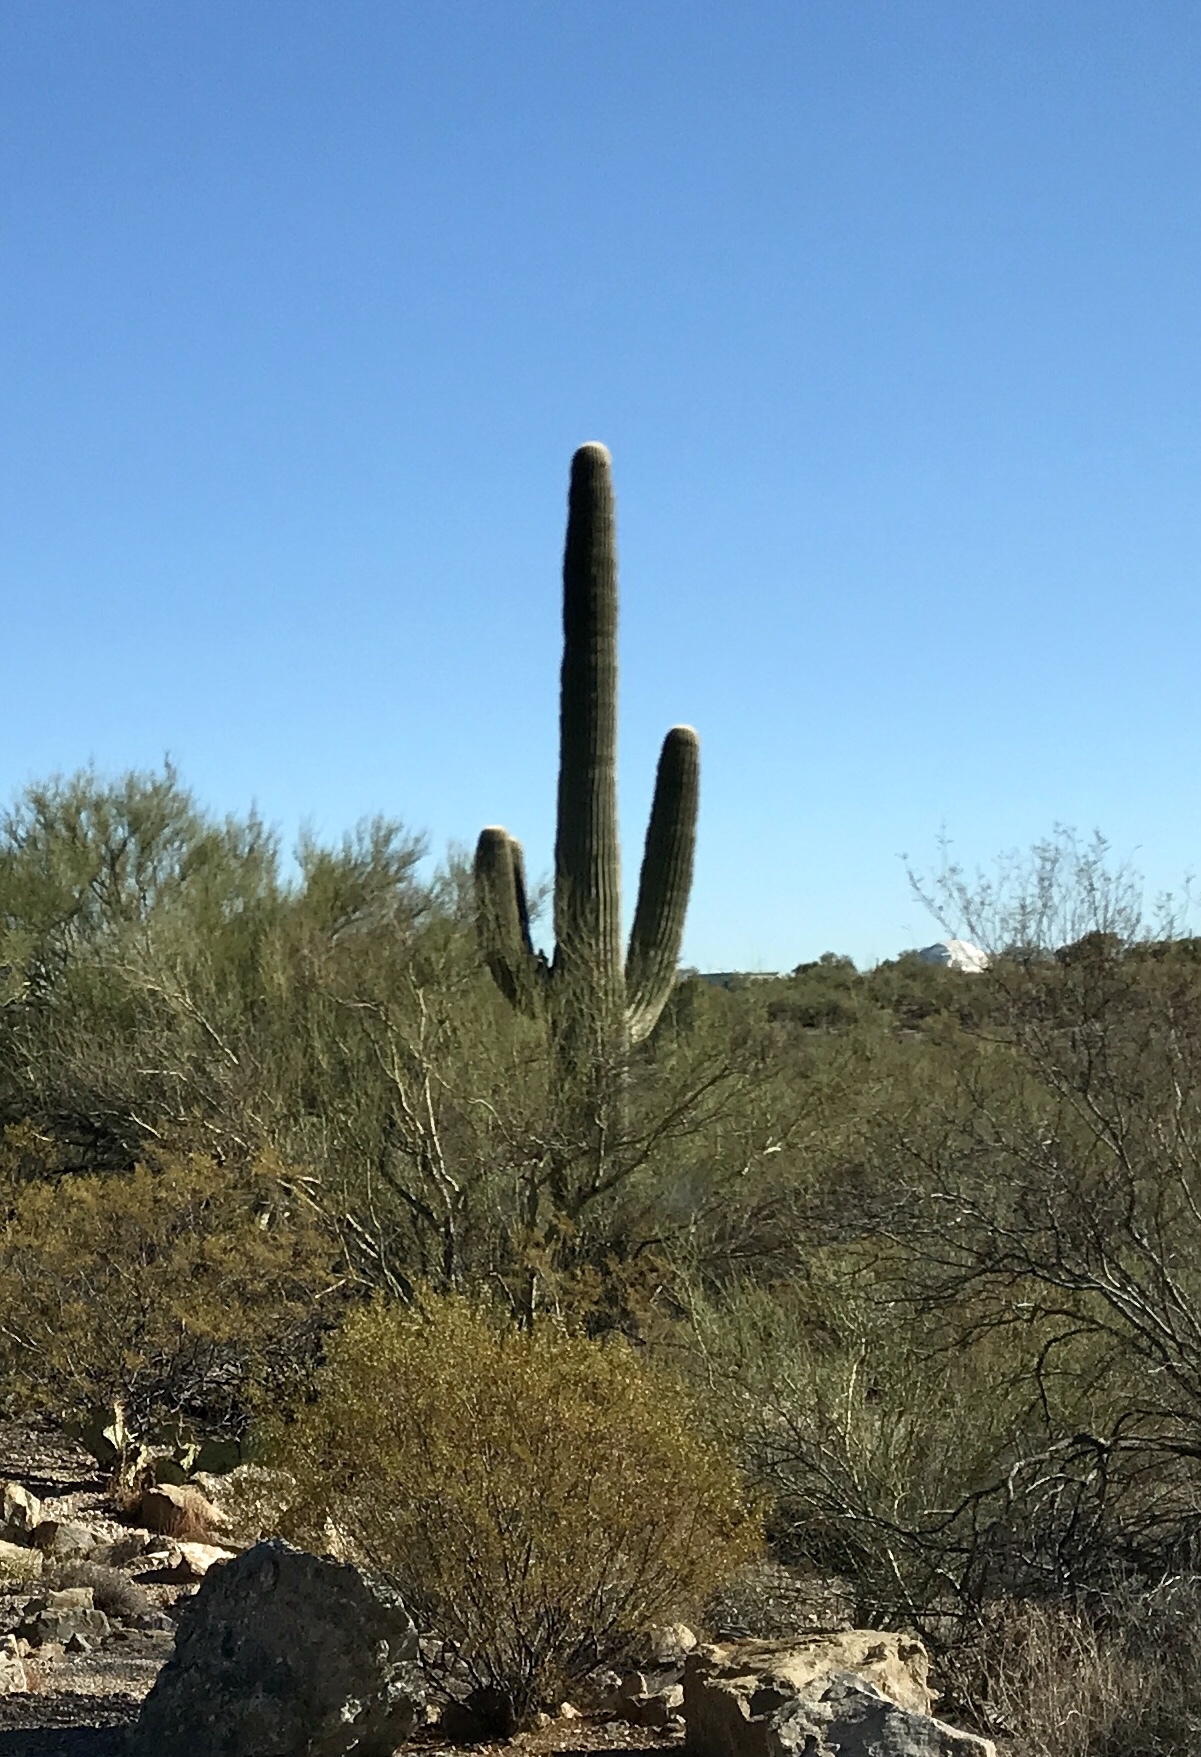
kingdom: Plantae
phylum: Tracheophyta
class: Magnoliopsida
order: Caryophyllales
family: Cactaceae
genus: Carnegiea
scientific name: Carnegiea gigantea
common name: Saguaro
